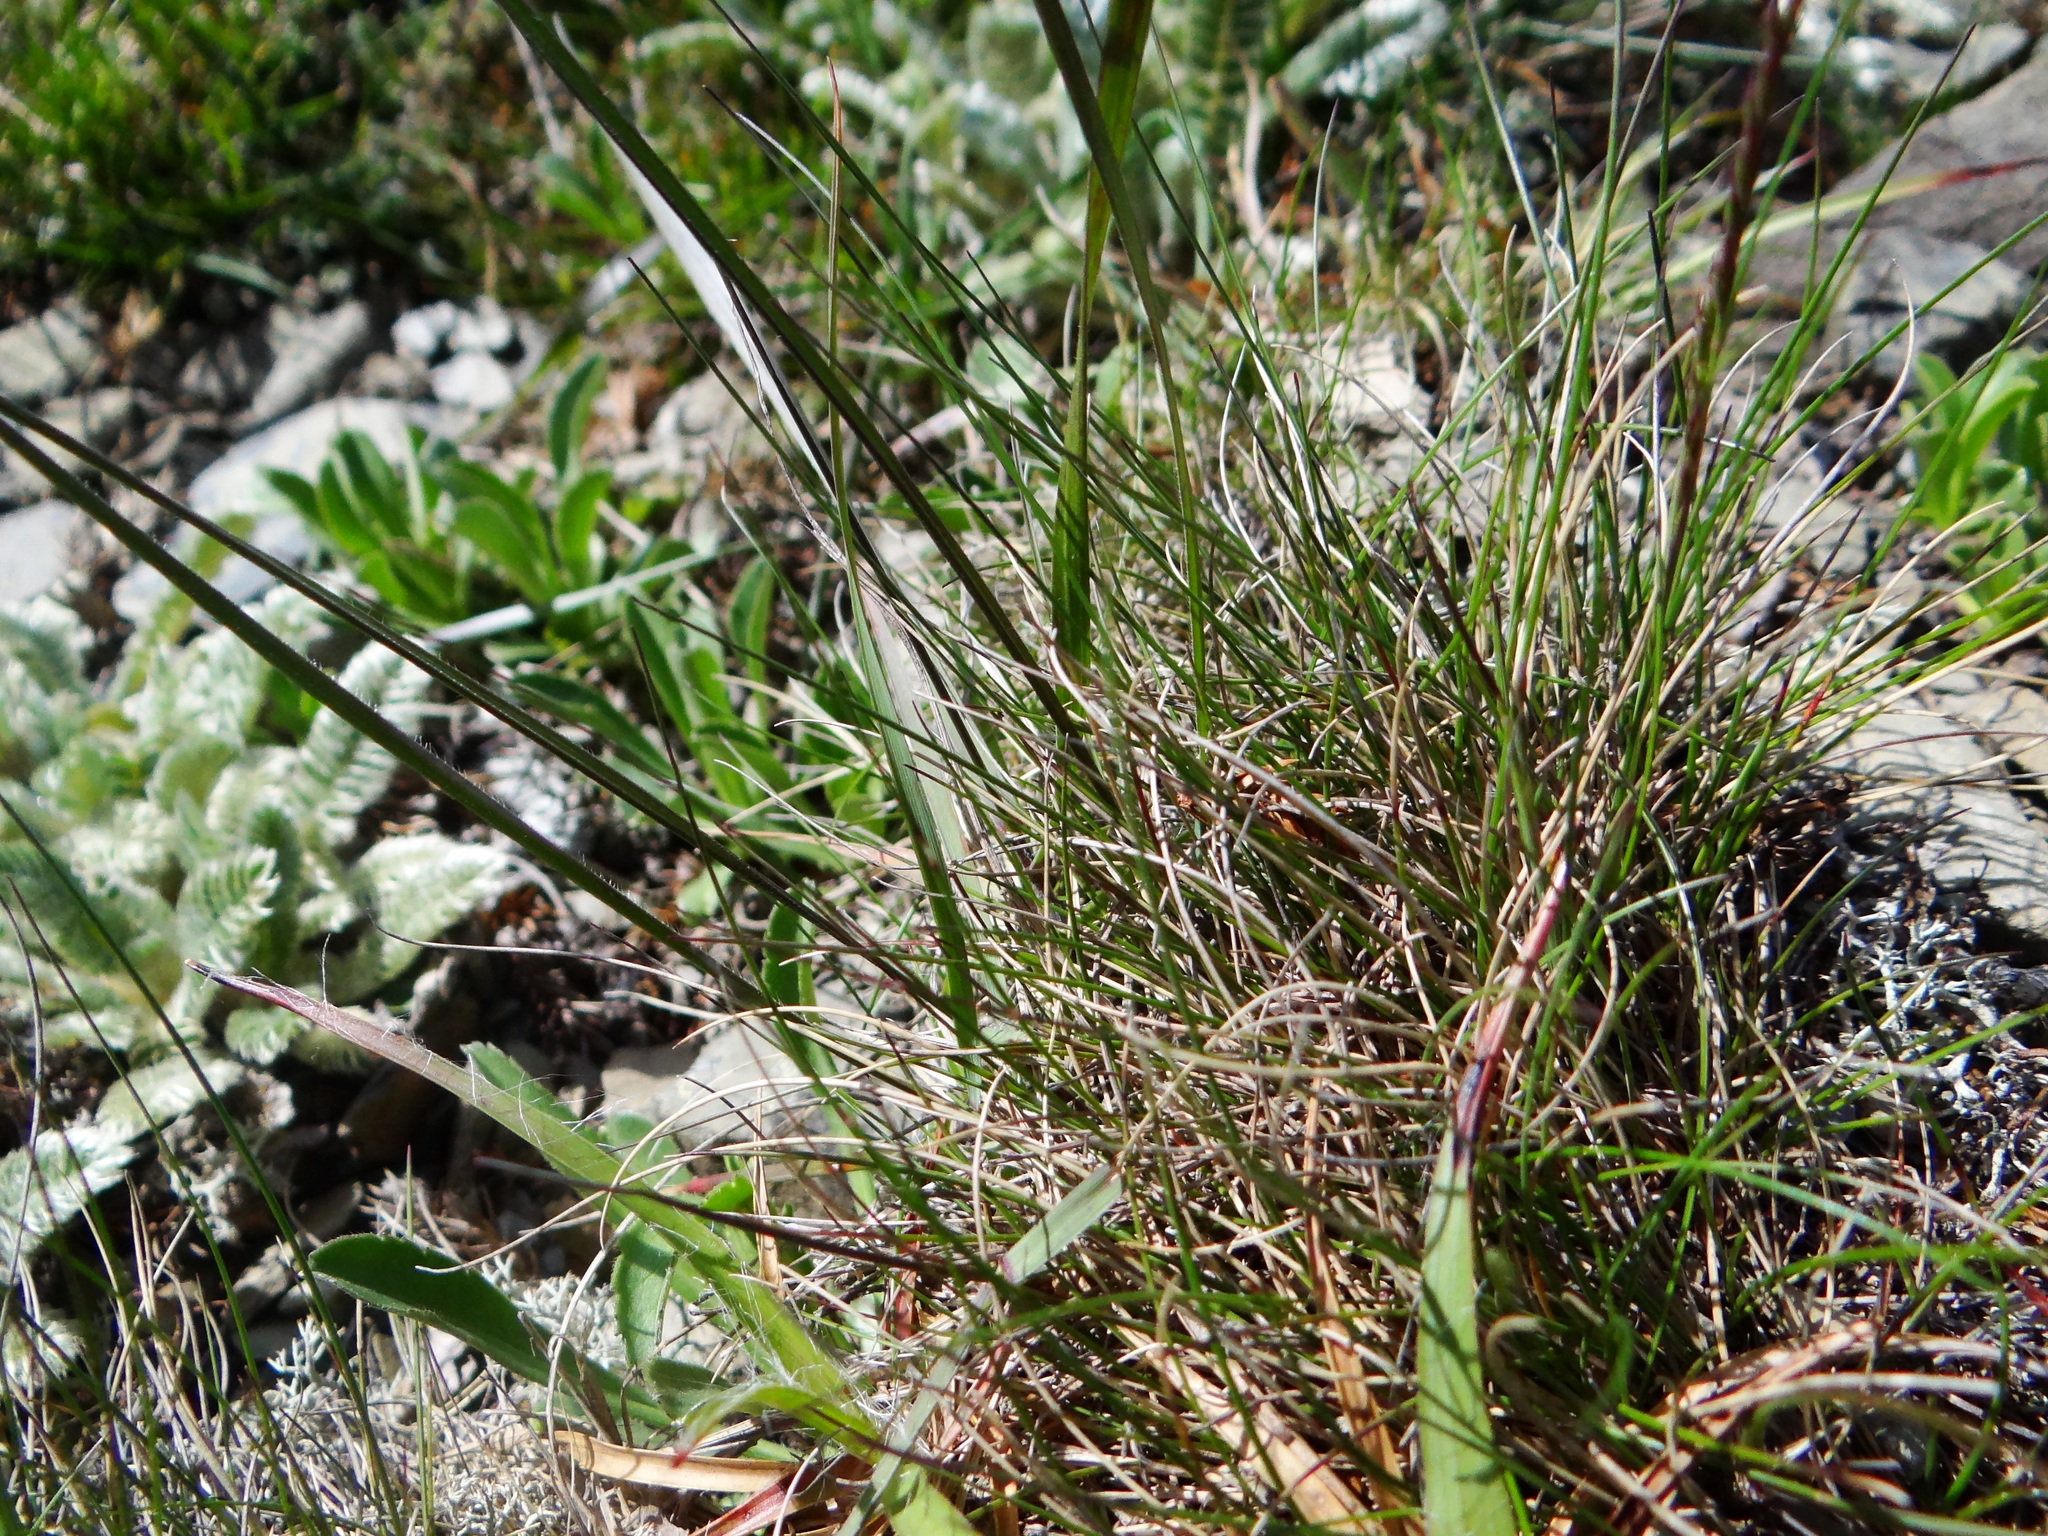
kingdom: Plantae
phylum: Tracheophyta
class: Liliopsida
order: Poales
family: Poaceae
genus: Festuca
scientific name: Festuca ovina
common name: Sheep fescue
